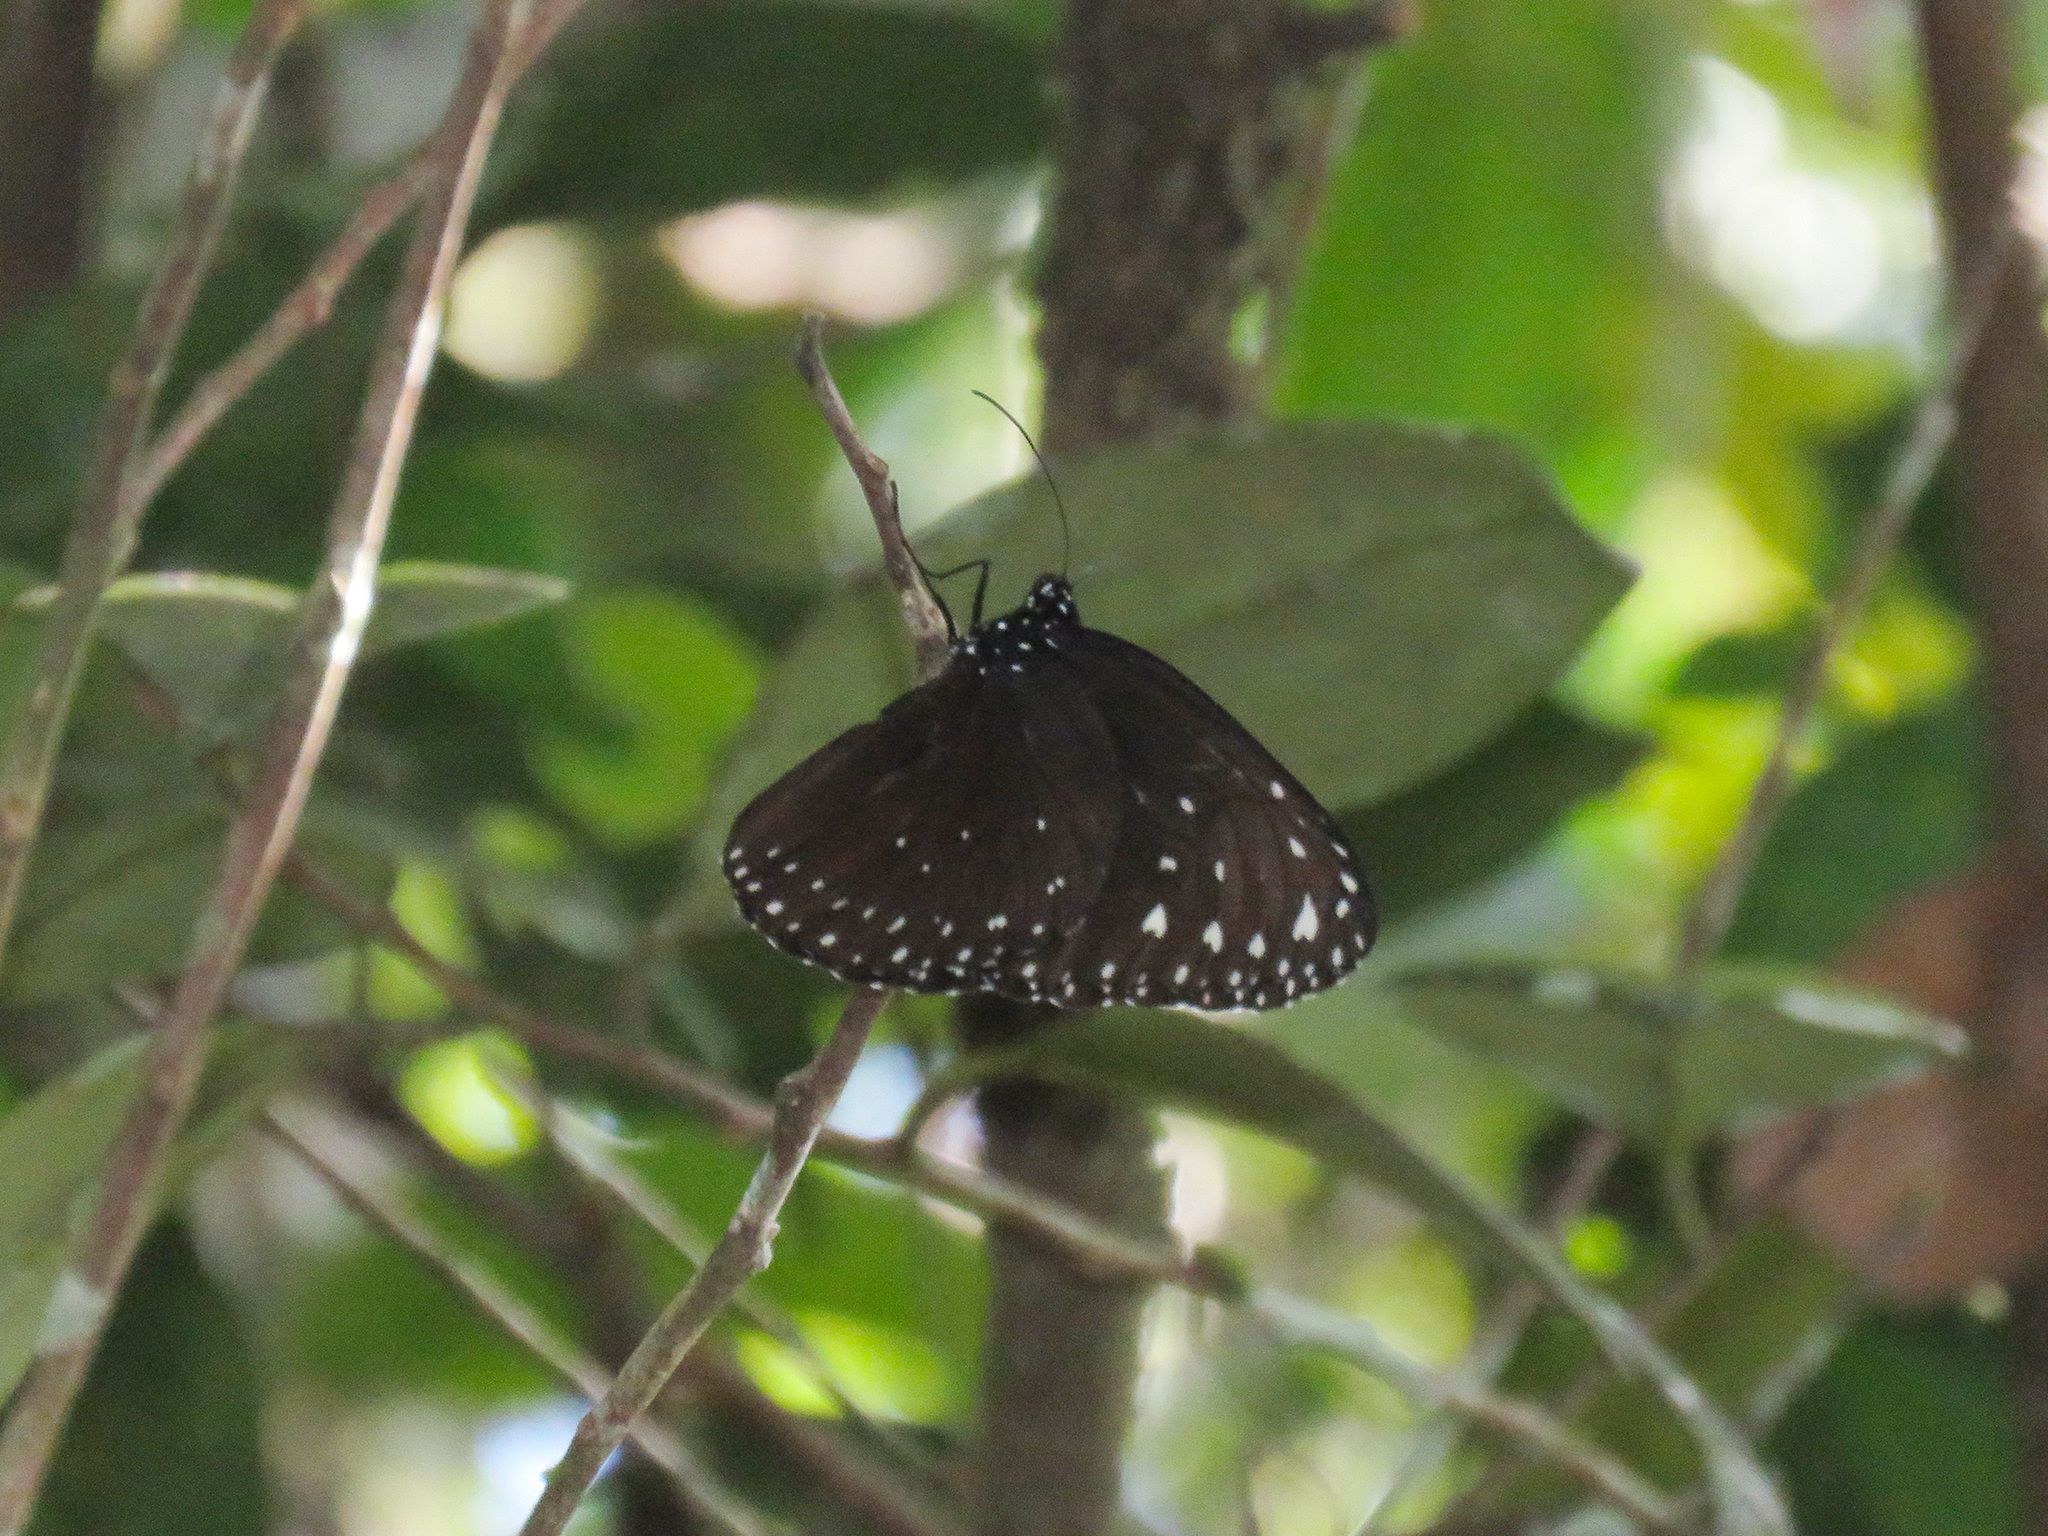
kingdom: Animalia
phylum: Arthropoda
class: Insecta
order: Lepidoptera
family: Nymphalidae
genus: Euploea
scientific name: Euploea camaralzeman
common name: Malayan crow butterfly
